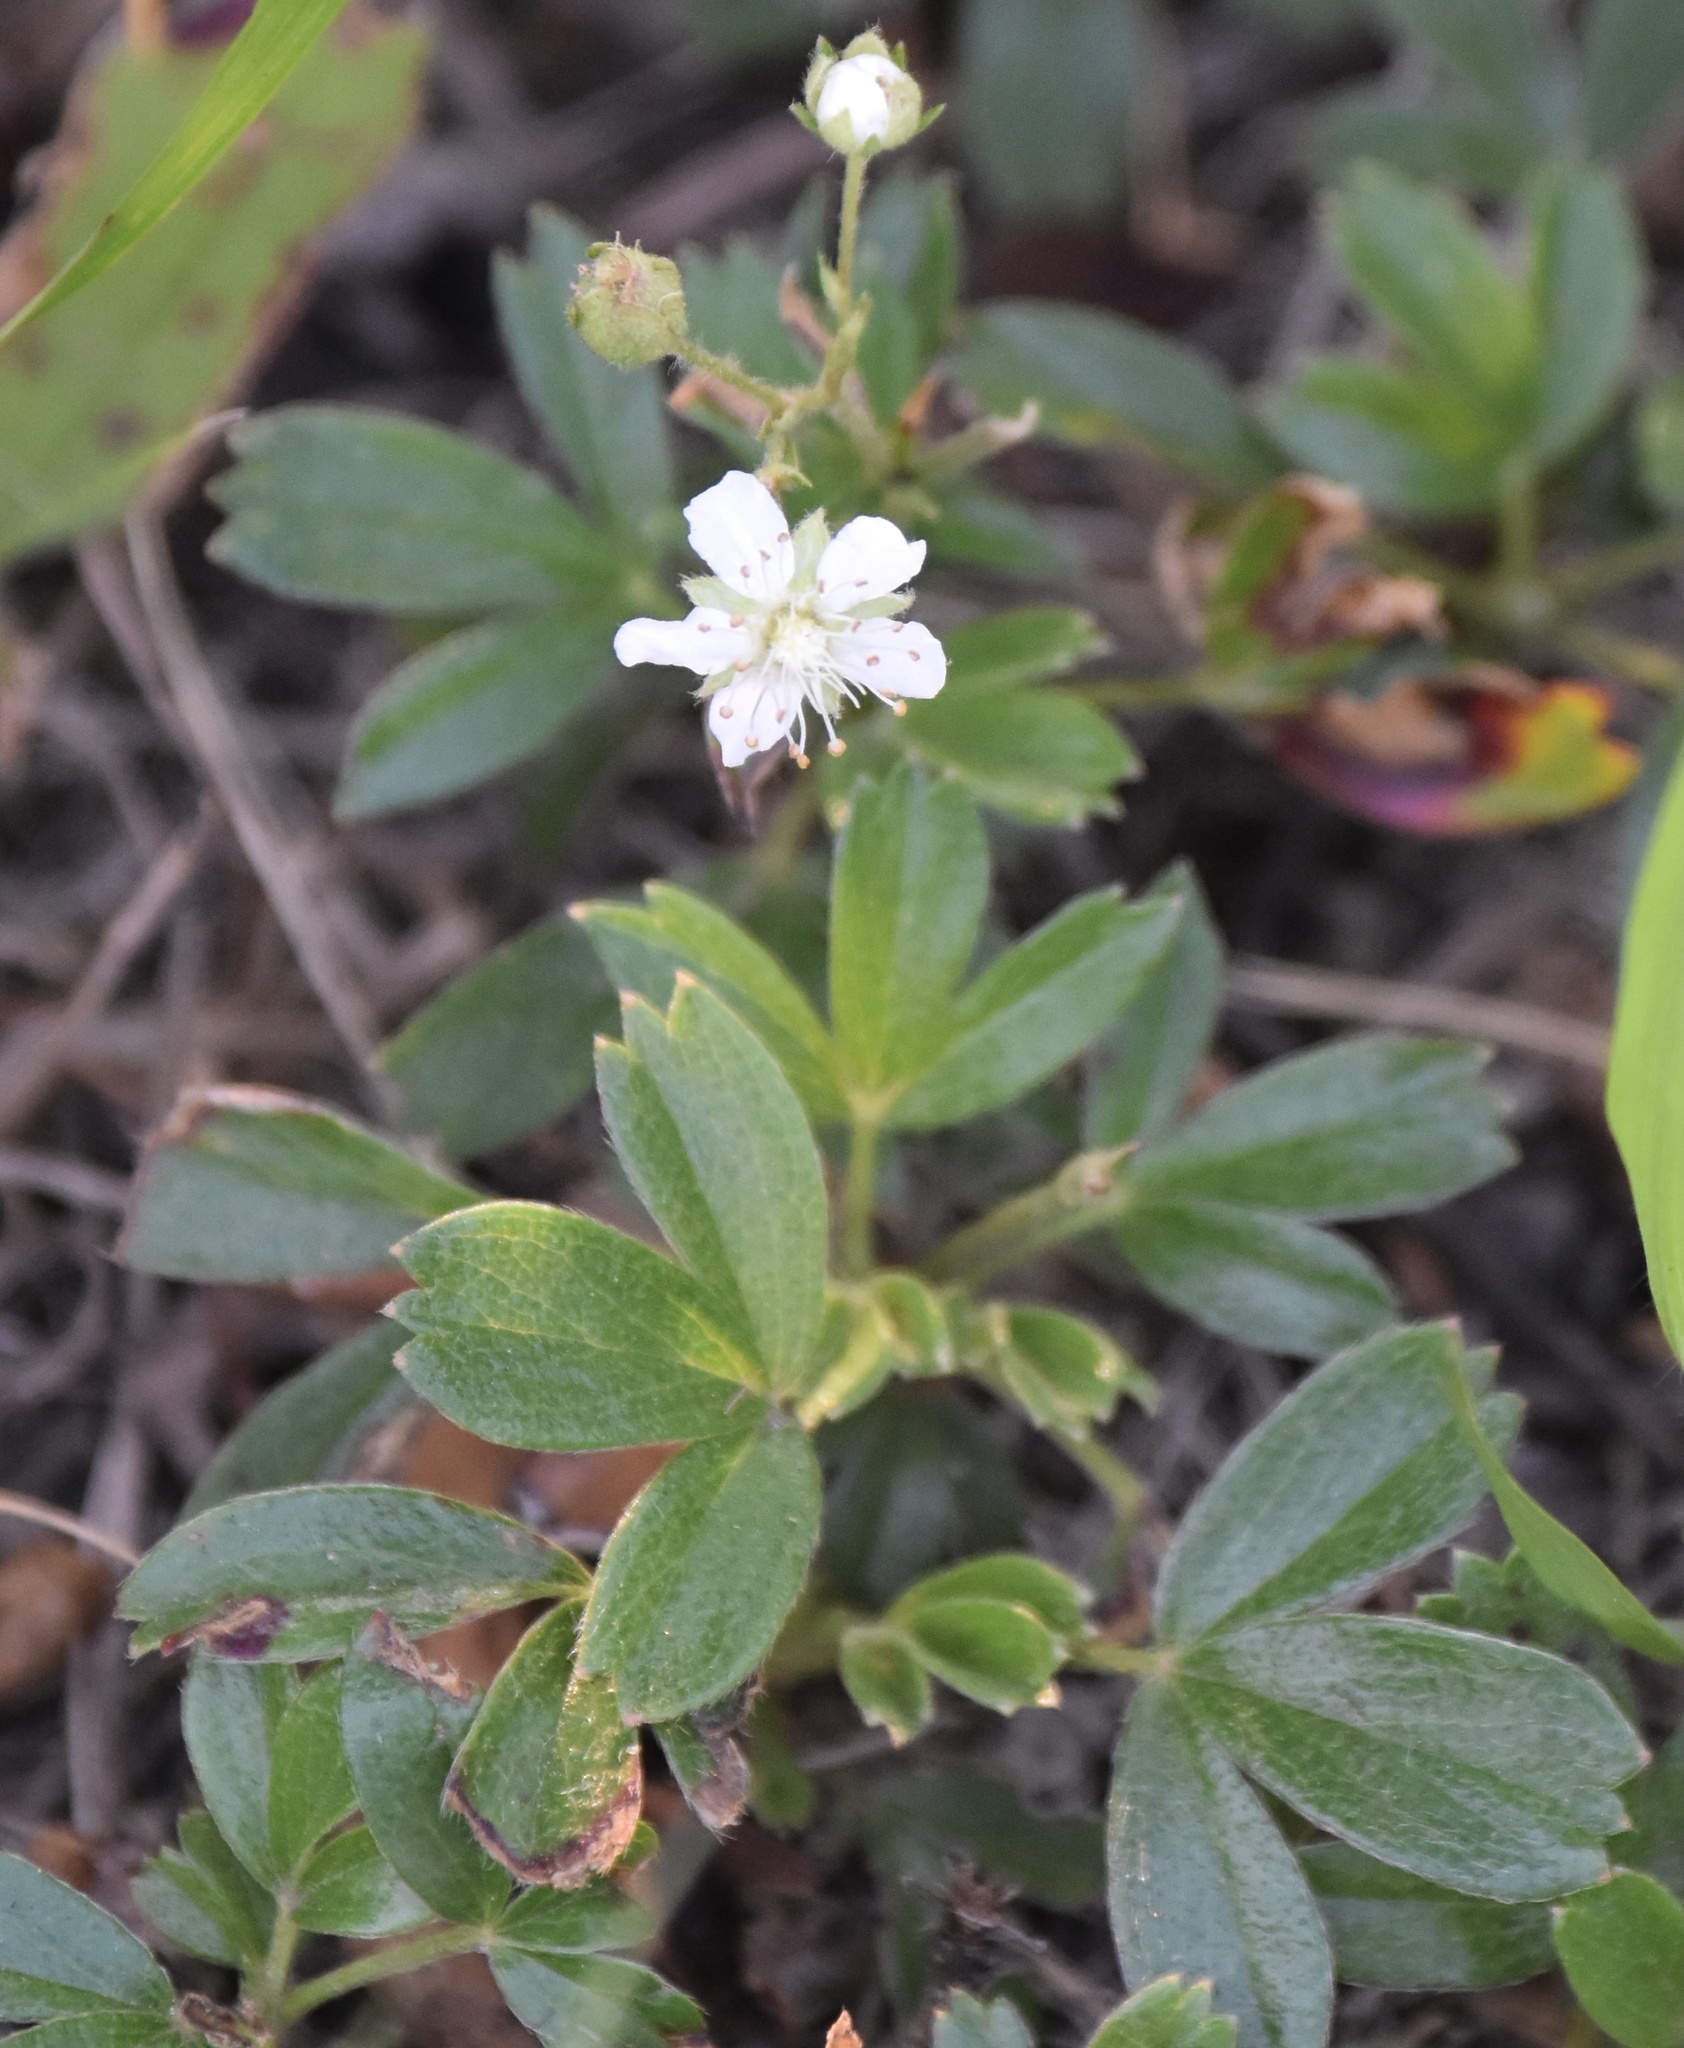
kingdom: Plantae
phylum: Tracheophyta
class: Magnoliopsida
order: Rosales
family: Rosaceae
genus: Sibbaldia
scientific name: Sibbaldia tridentata
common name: Three-toothed cinquefoil
